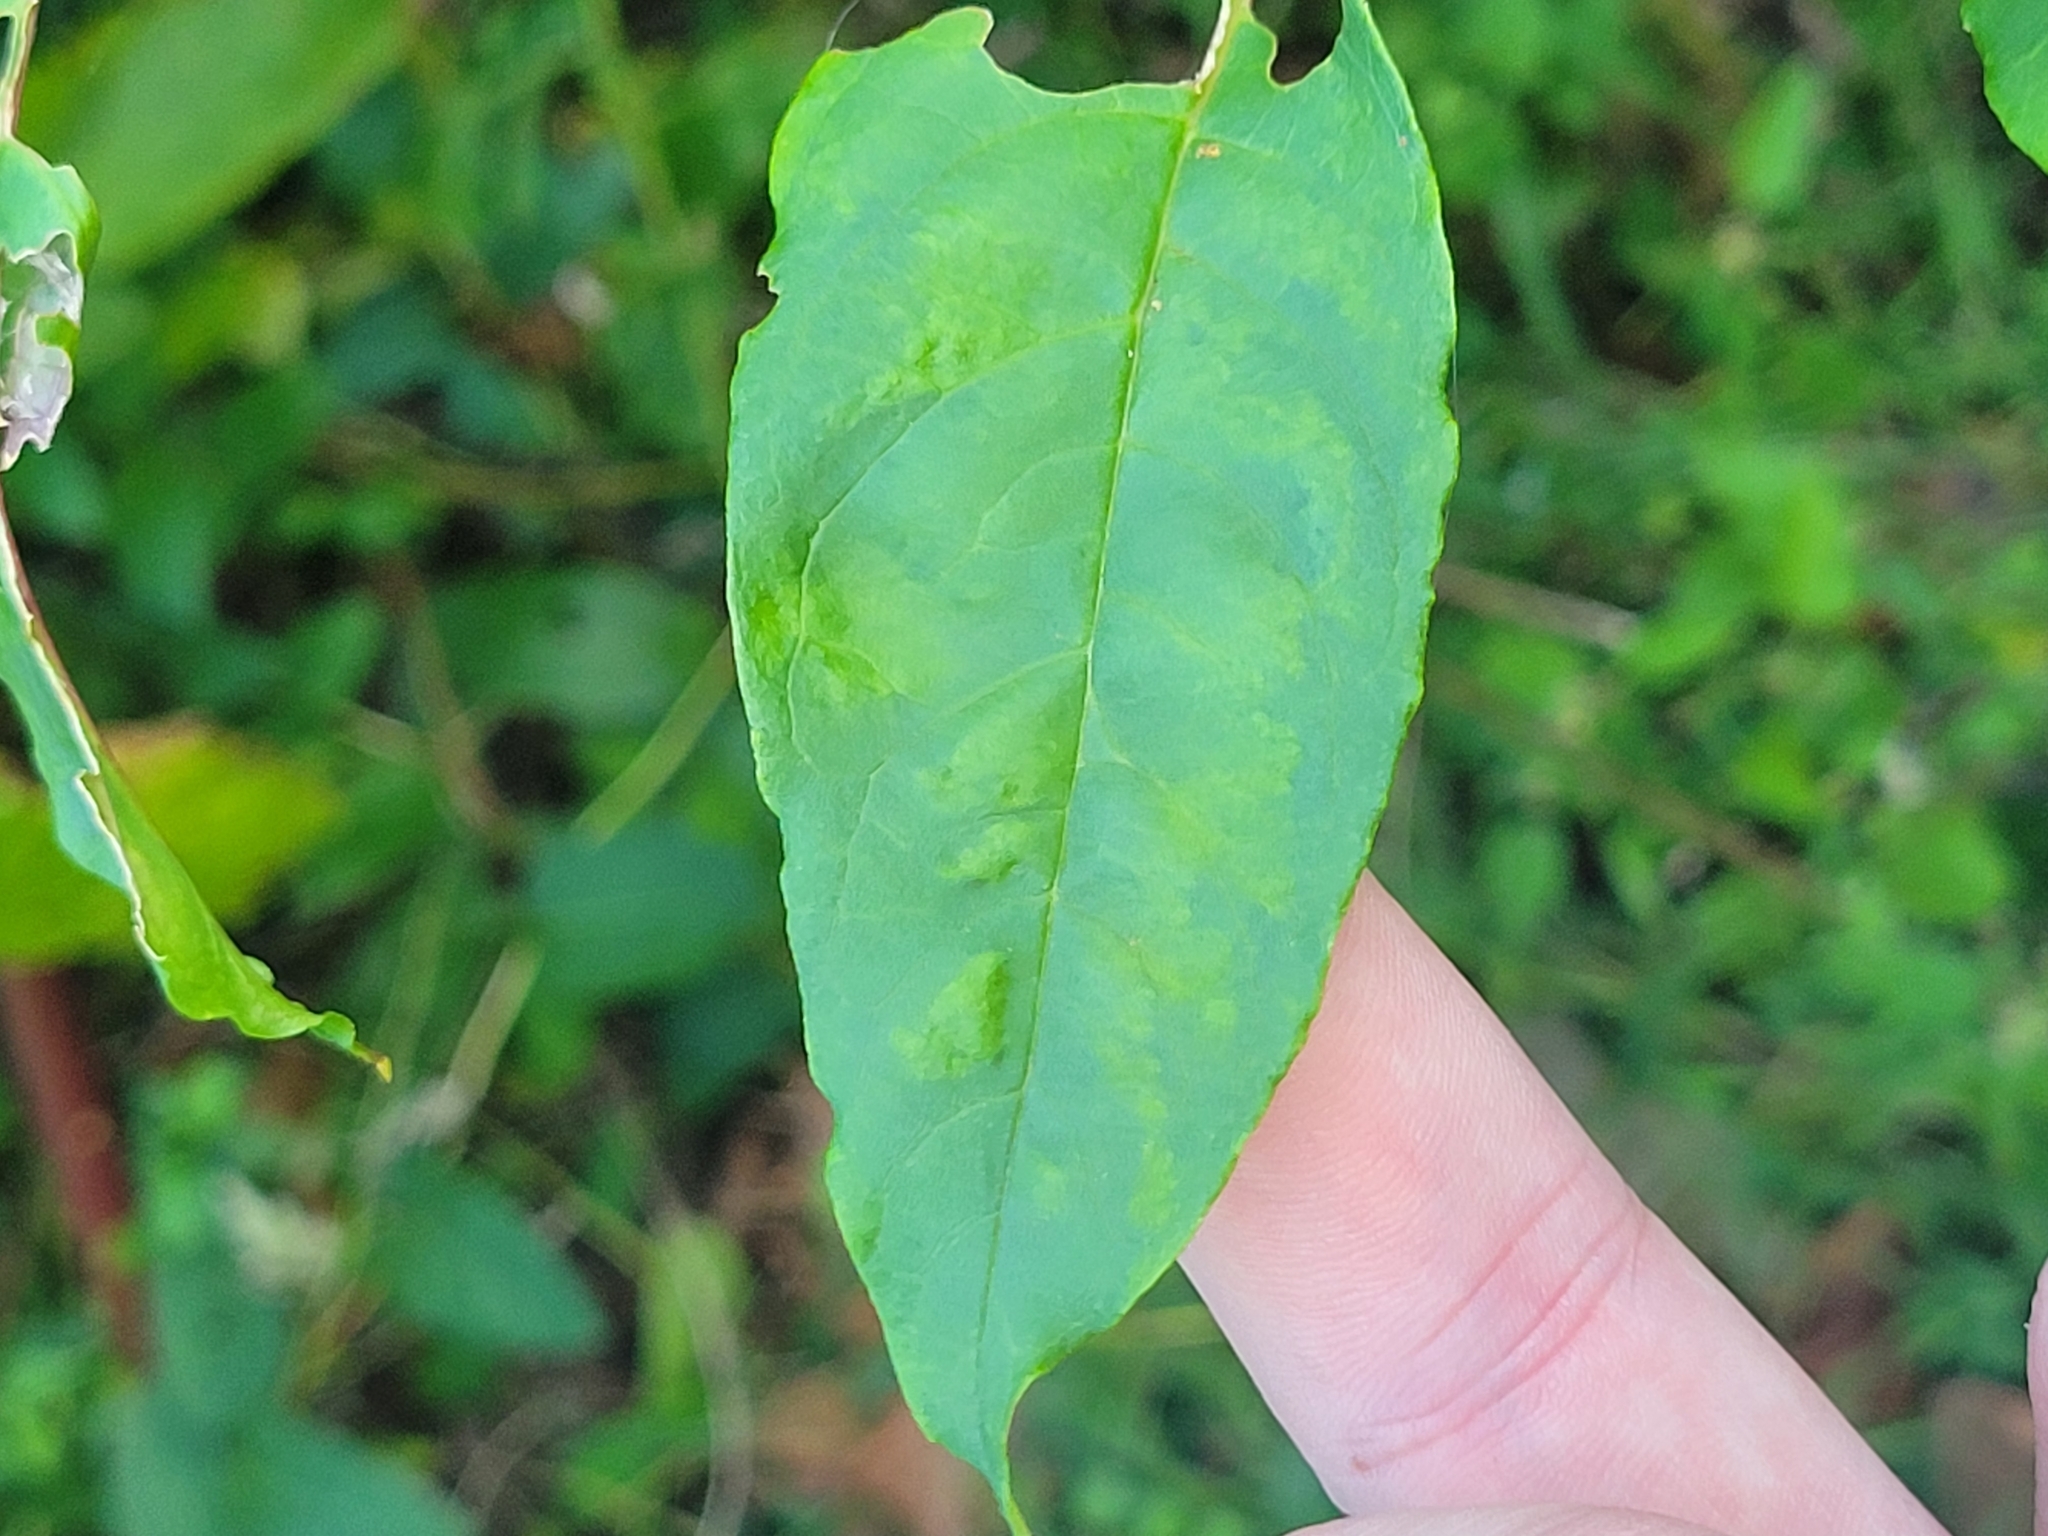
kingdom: Plantae
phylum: Tracheophyta
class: Magnoliopsida
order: Caryophyllales
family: Phytolaccaceae
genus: Phytolacca
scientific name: Phytolacca americana
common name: American pokeweed
